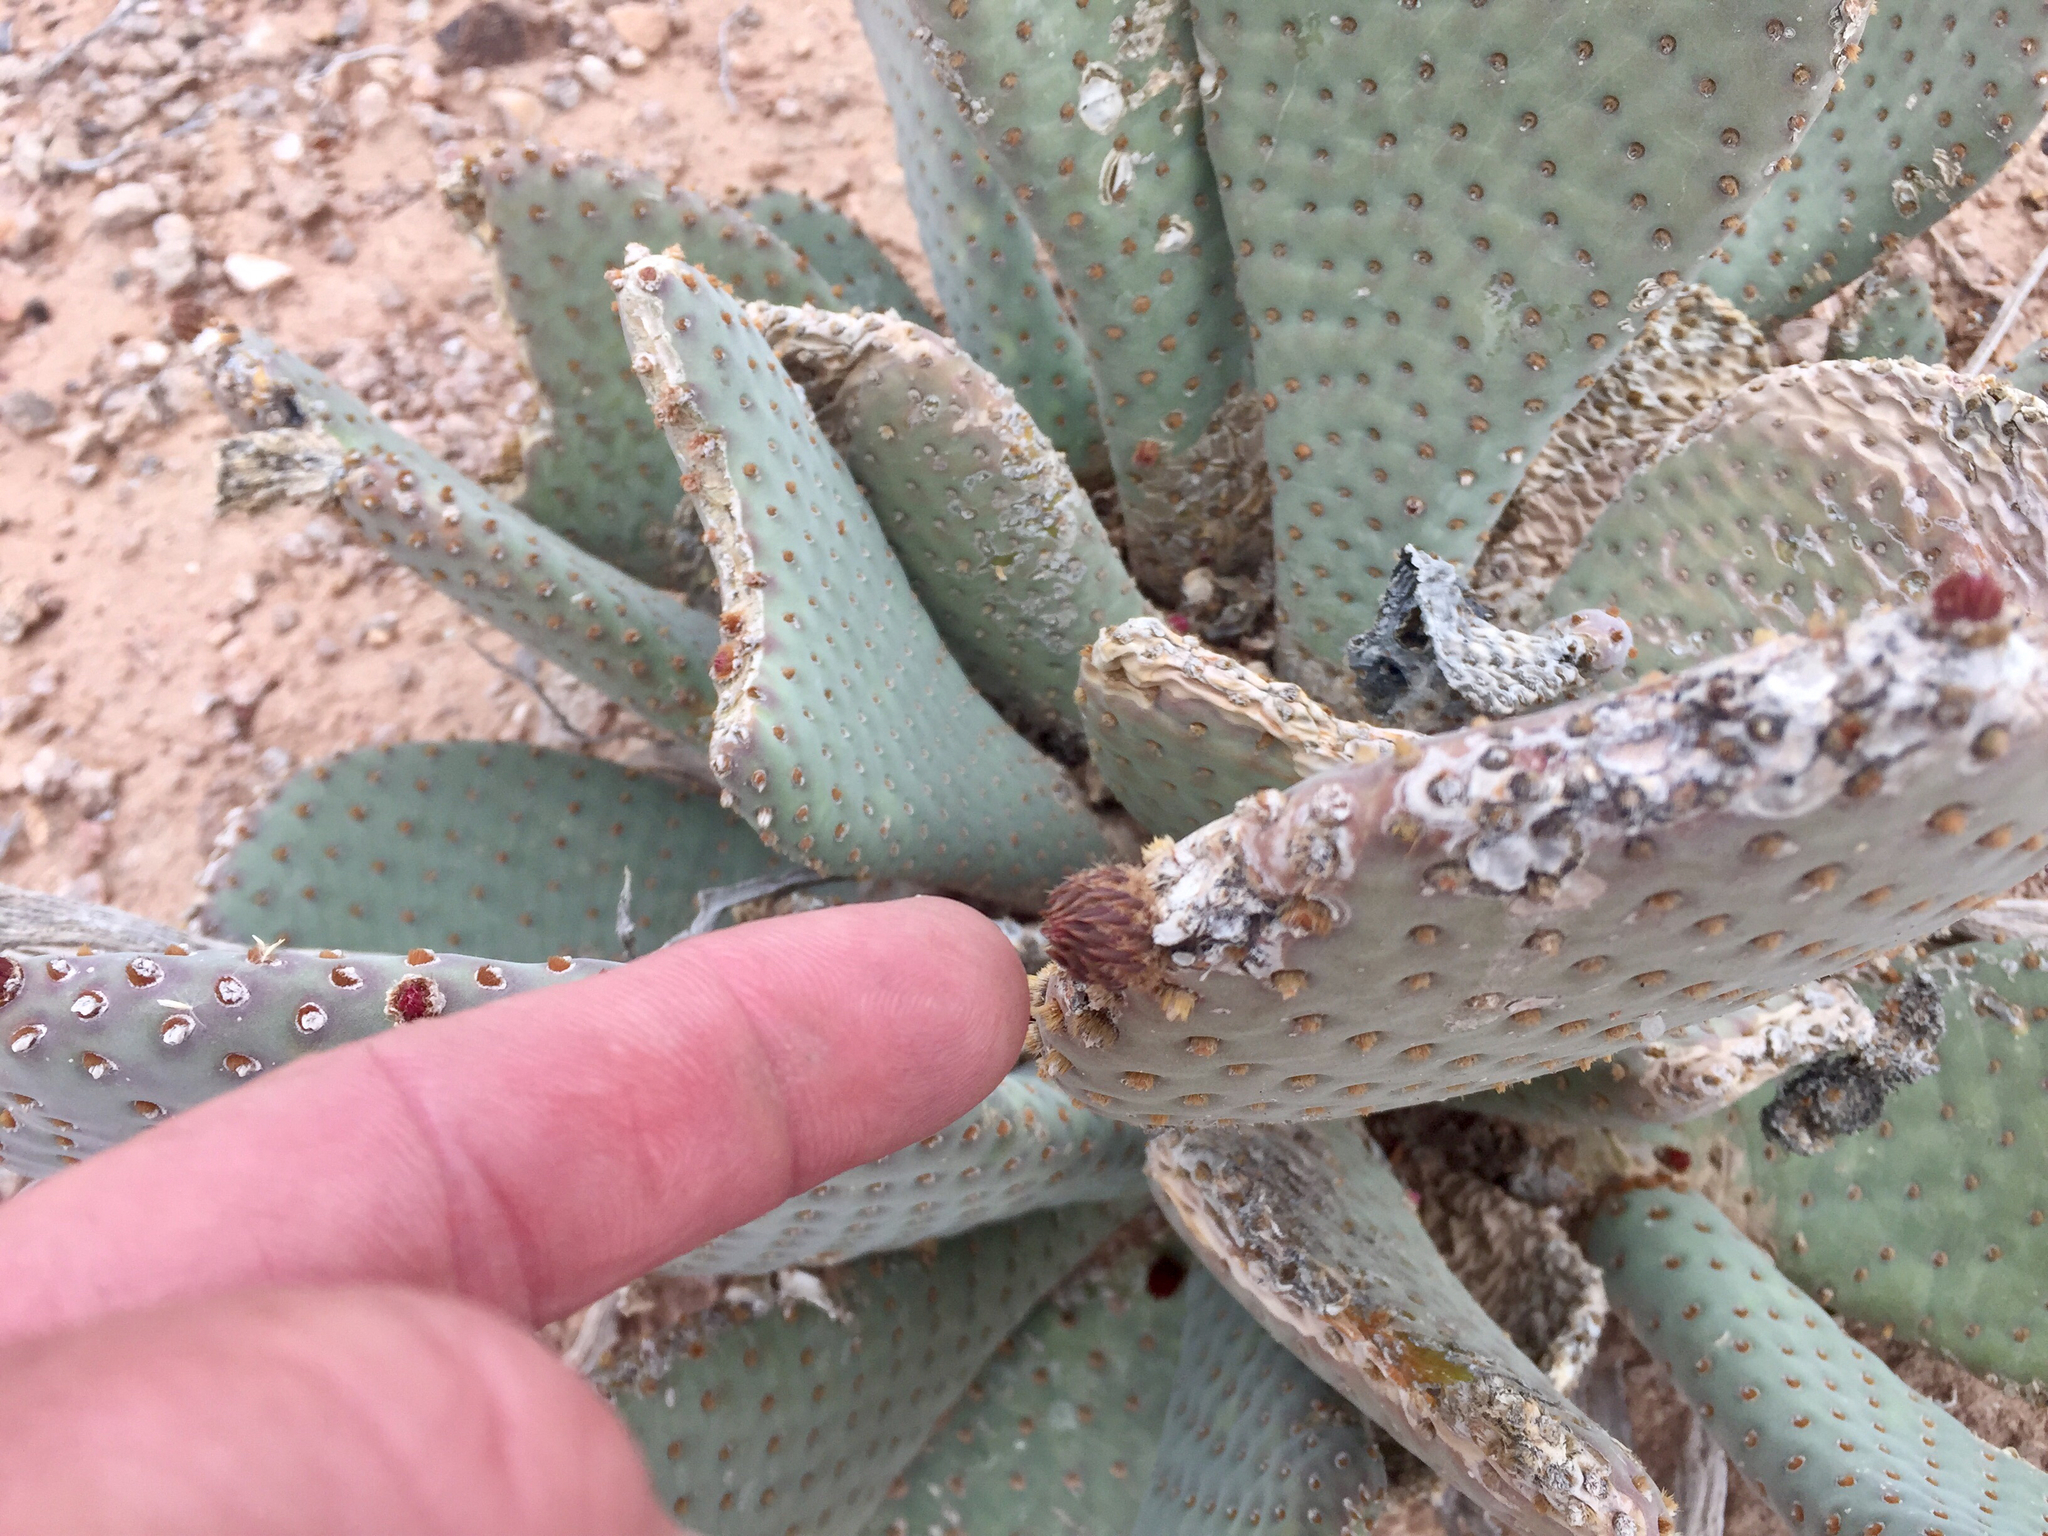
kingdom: Plantae
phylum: Tracheophyta
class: Magnoliopsida
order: Caryophyllales
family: Cactaceae
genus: Opuntia
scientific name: Opuntia basilaris
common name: Beavertail prickly-pear
